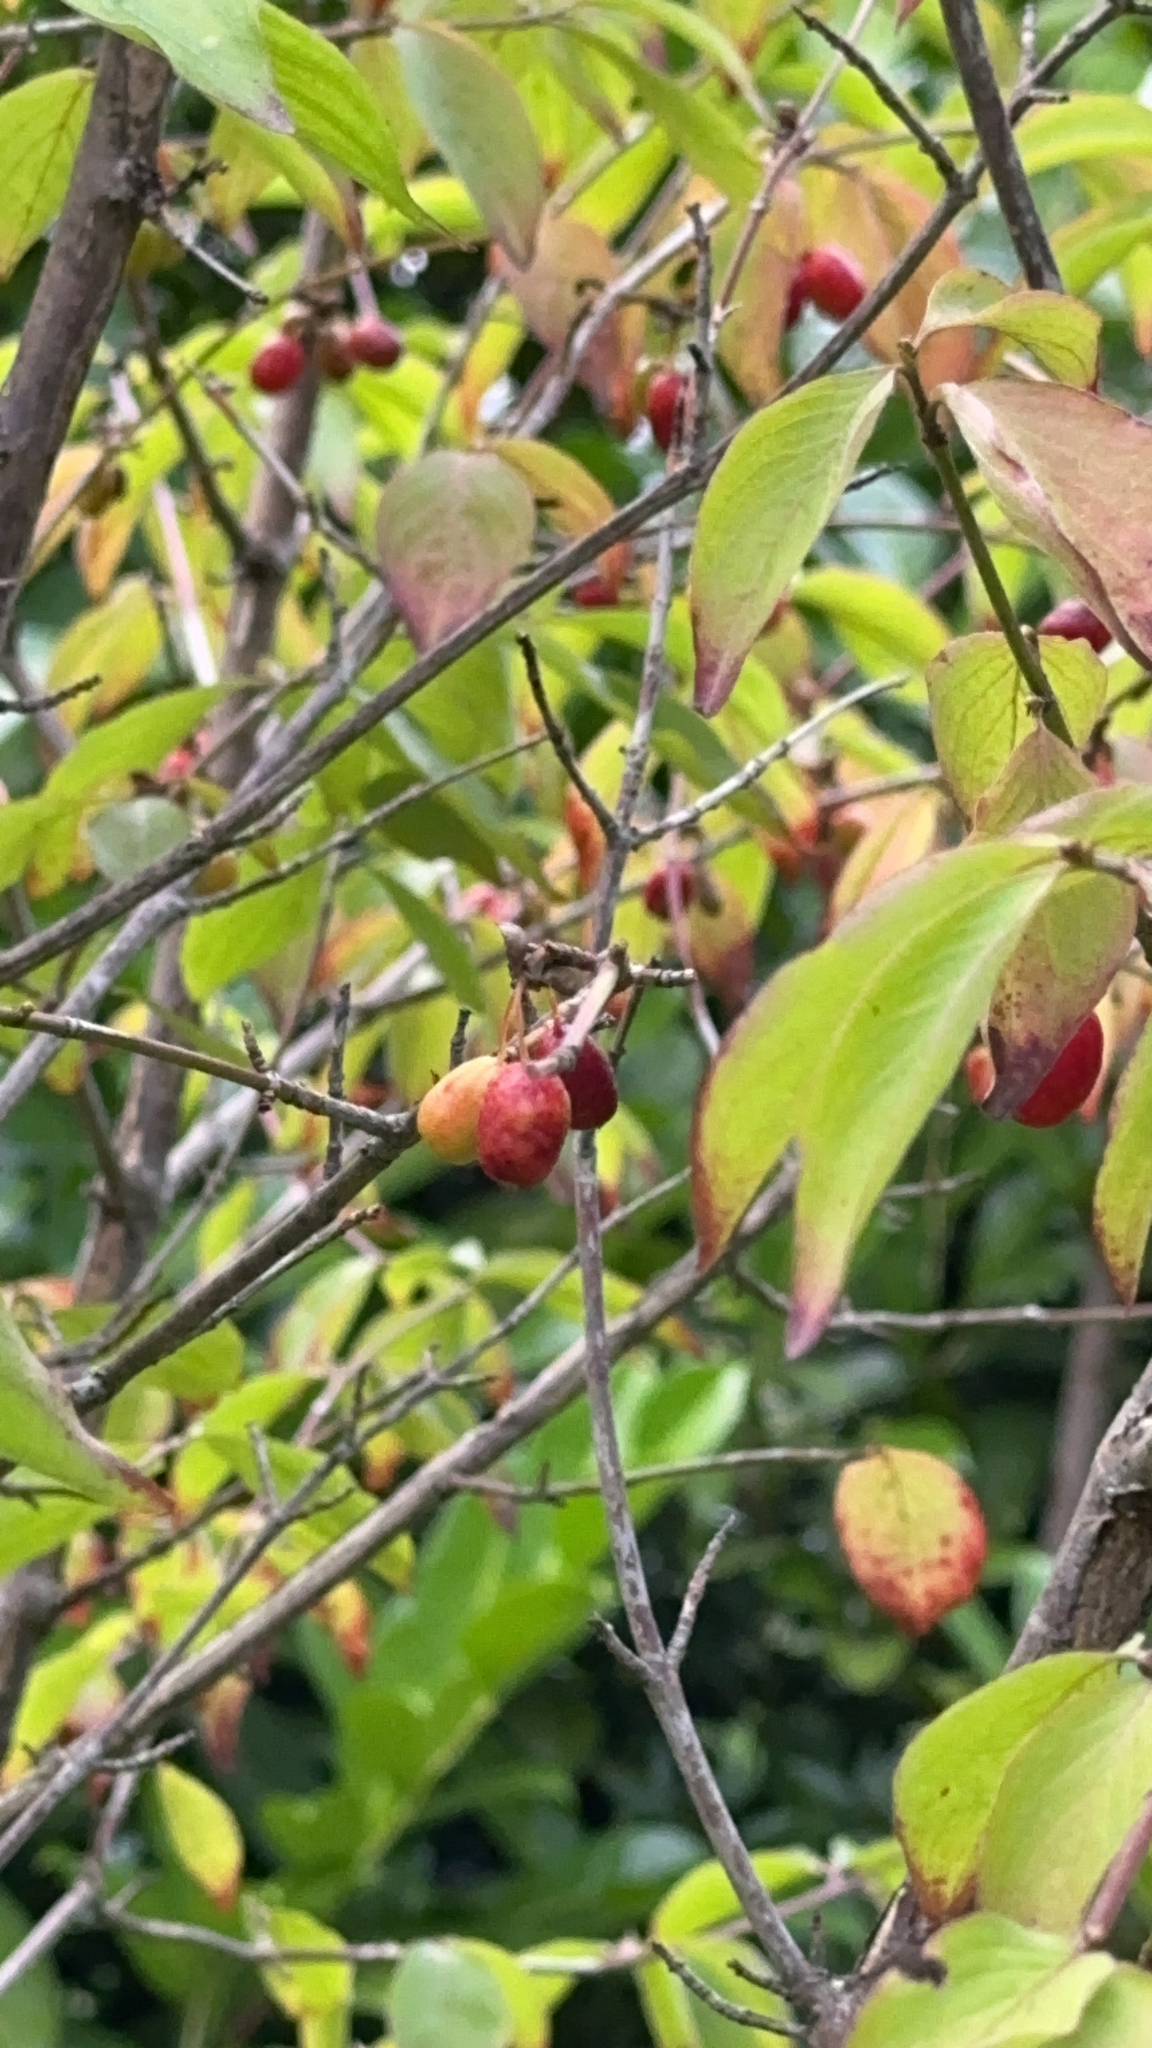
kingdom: Plantae
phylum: Tracheophyta
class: Magnoliopsida
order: Cornales
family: Cornaceae
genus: Cornus
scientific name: Cornus mas
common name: Cornelian-cherry
